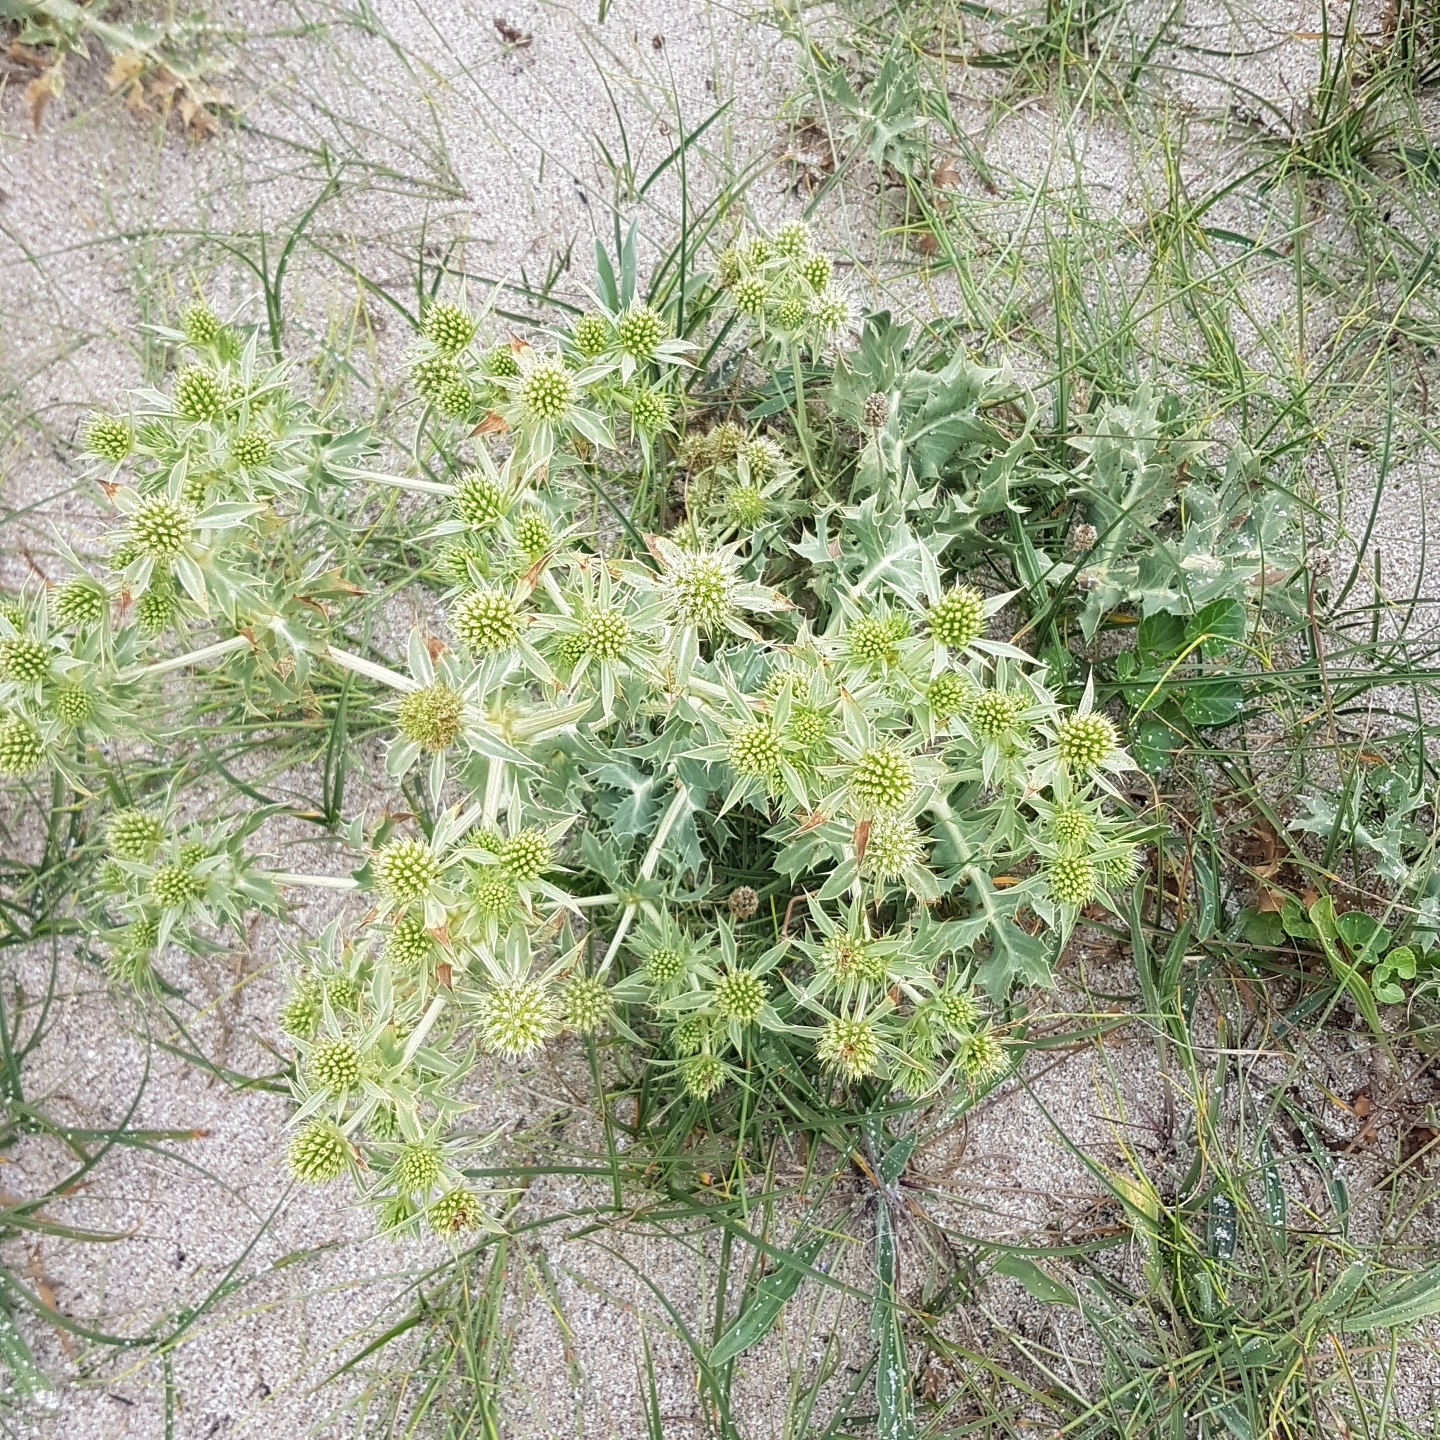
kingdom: Plantae
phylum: Tracheophyta
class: Magnoliopsida
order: Apiales
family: Apiaceae
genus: Eryngium
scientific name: Eryngium campestre
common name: Field eryngo
